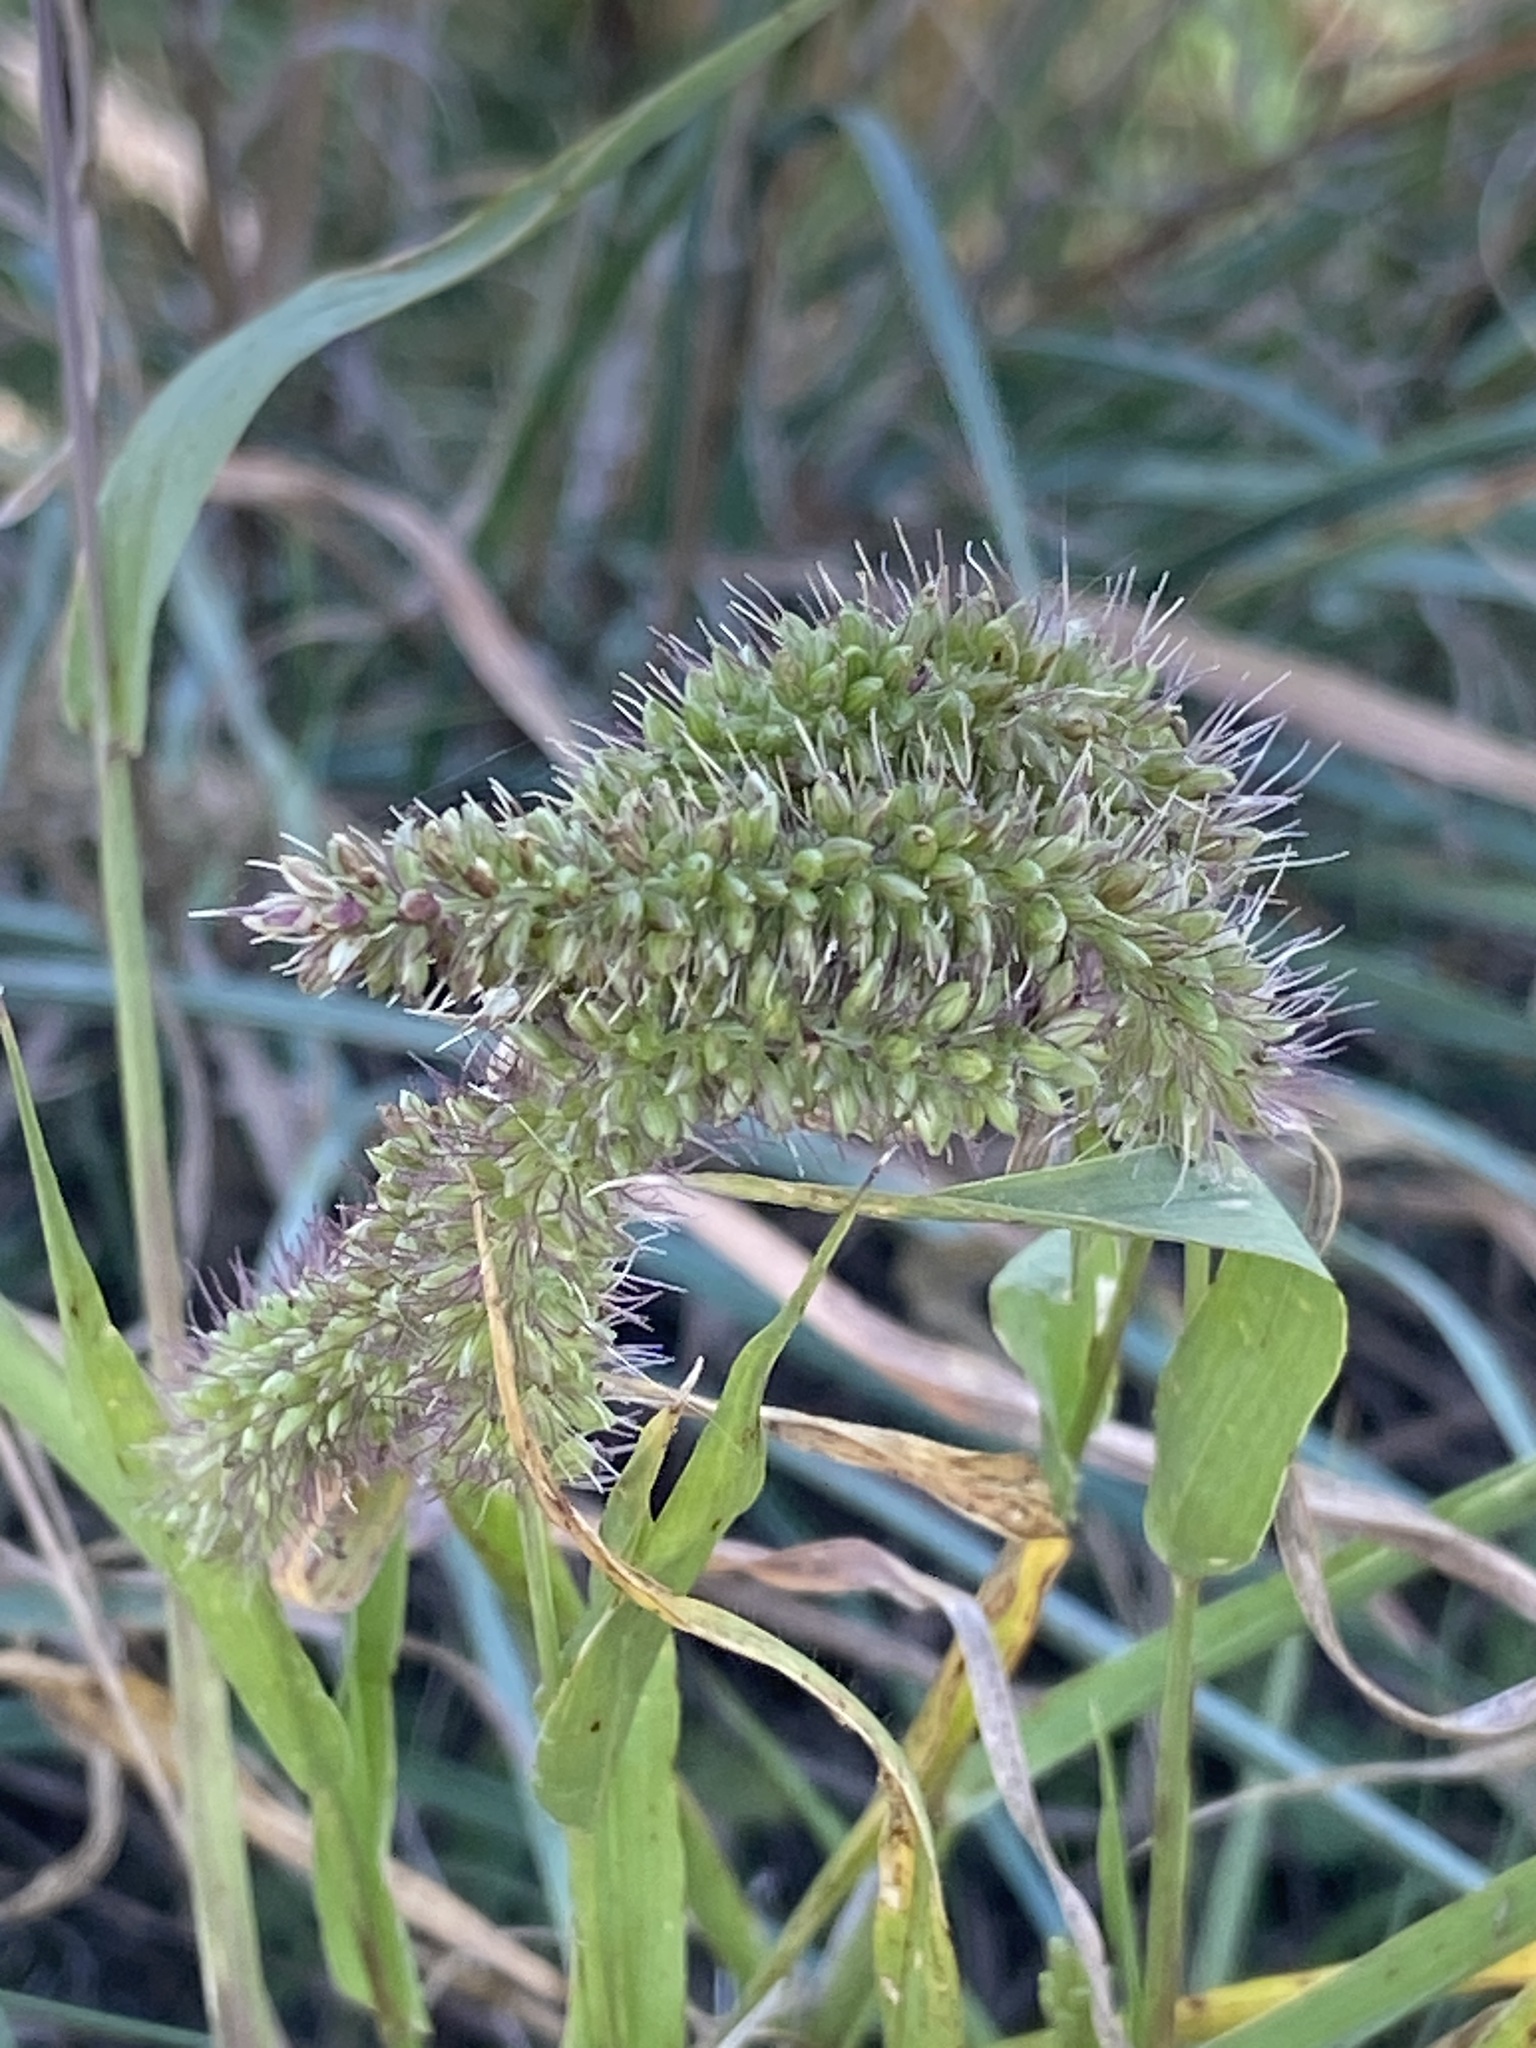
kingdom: Plantae
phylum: Tracheophyta
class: Liliopsida
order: Poales
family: Poaceae
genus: Setaria
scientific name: Setaria verticillata
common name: Hooked bristlegrass
